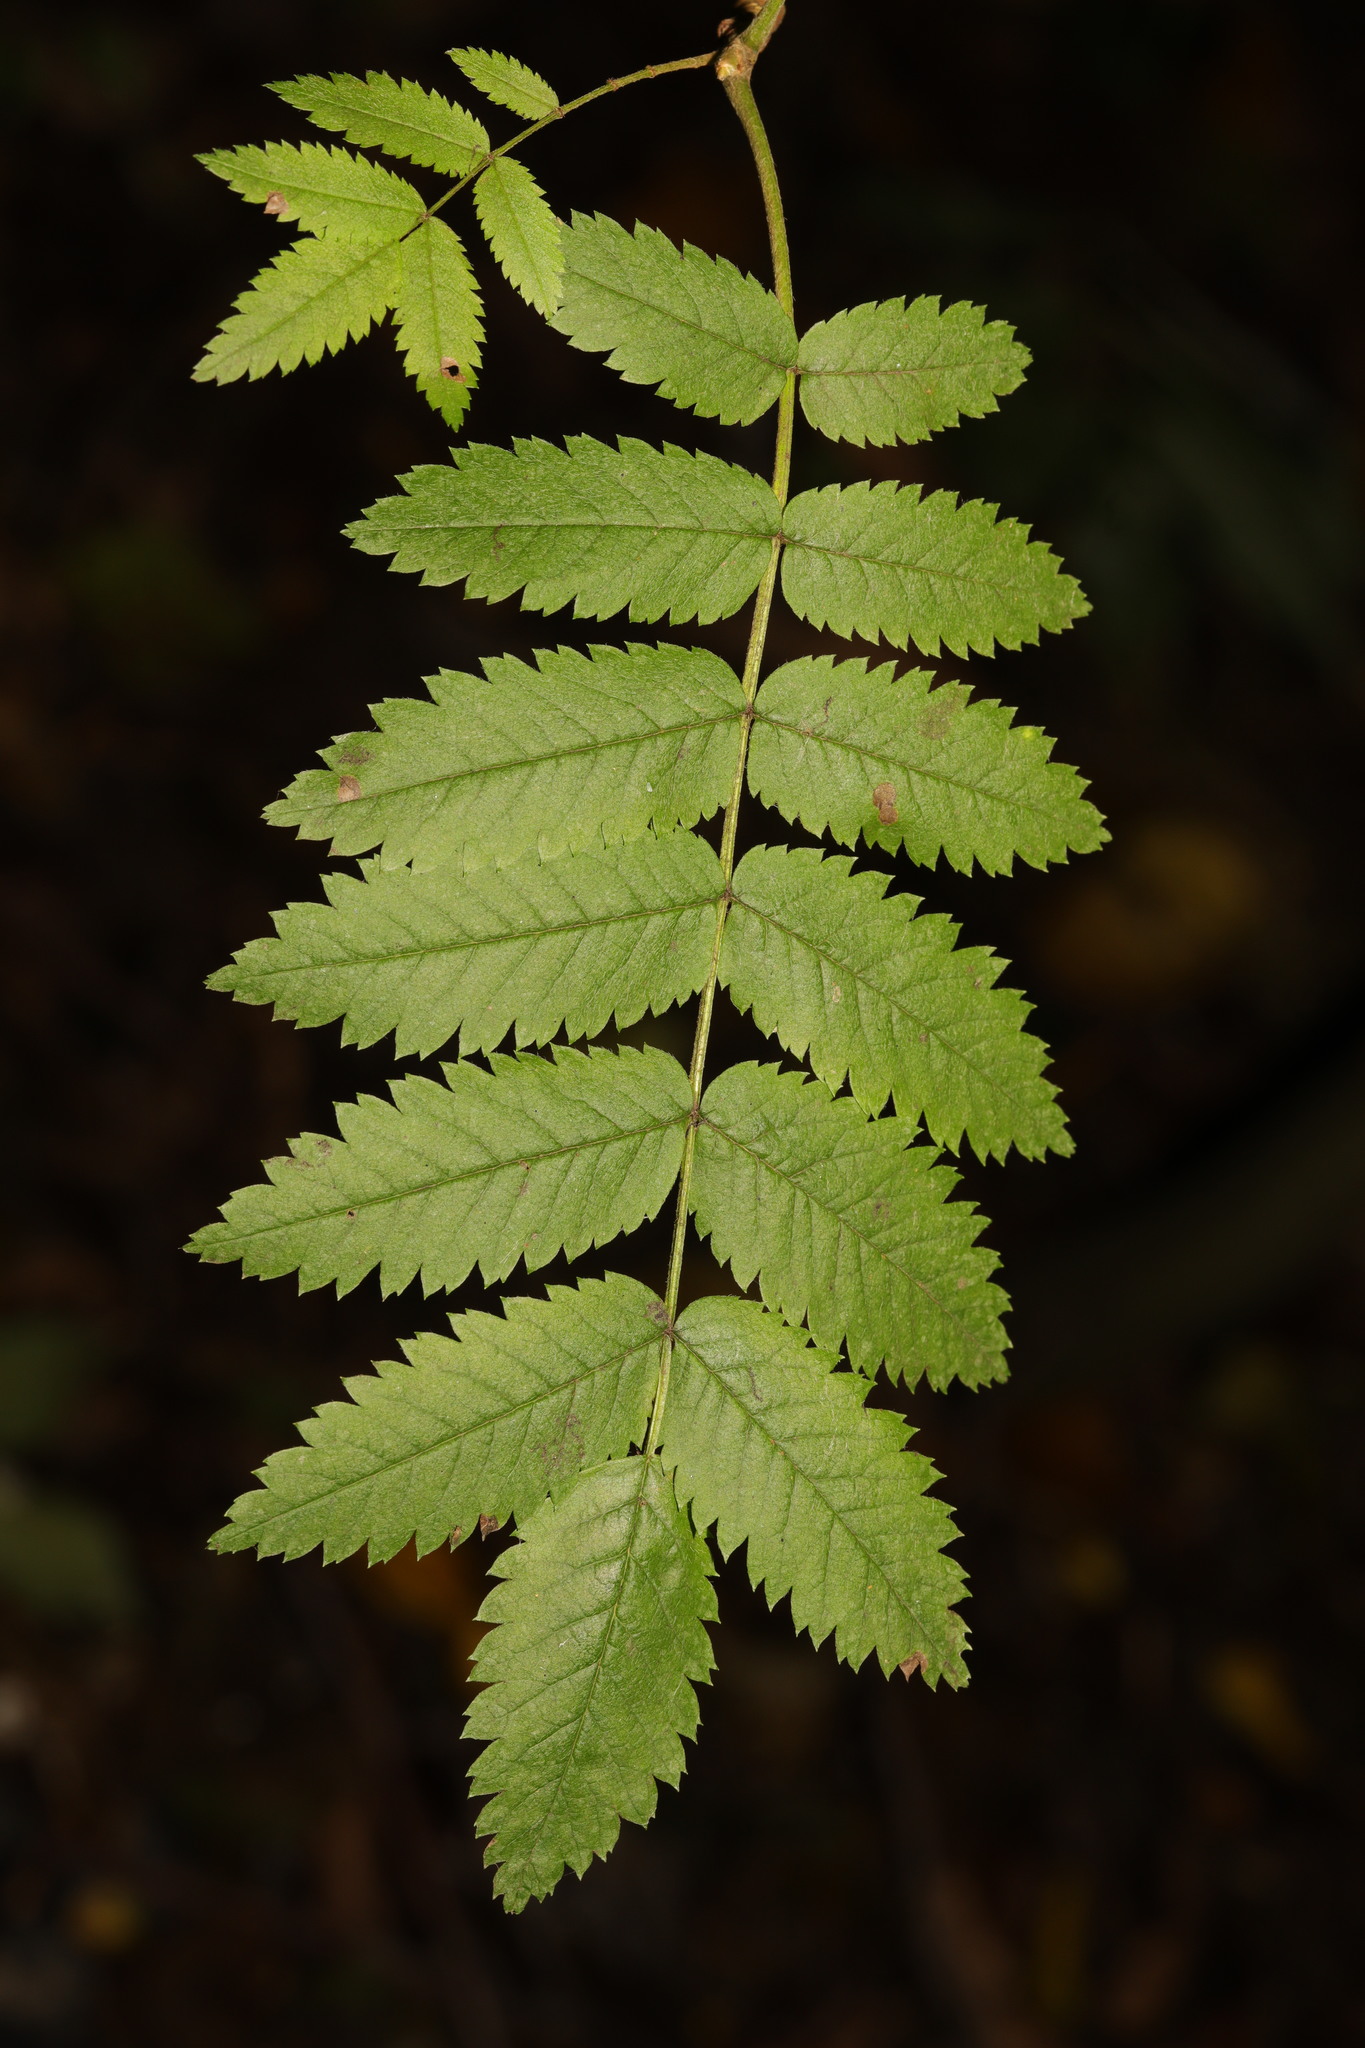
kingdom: Plantae
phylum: Tracheophyta
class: Magnoliopsida
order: Rosales
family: Rosaceae
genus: Sorbus
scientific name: Sorbus aucuparia
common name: Rowan
